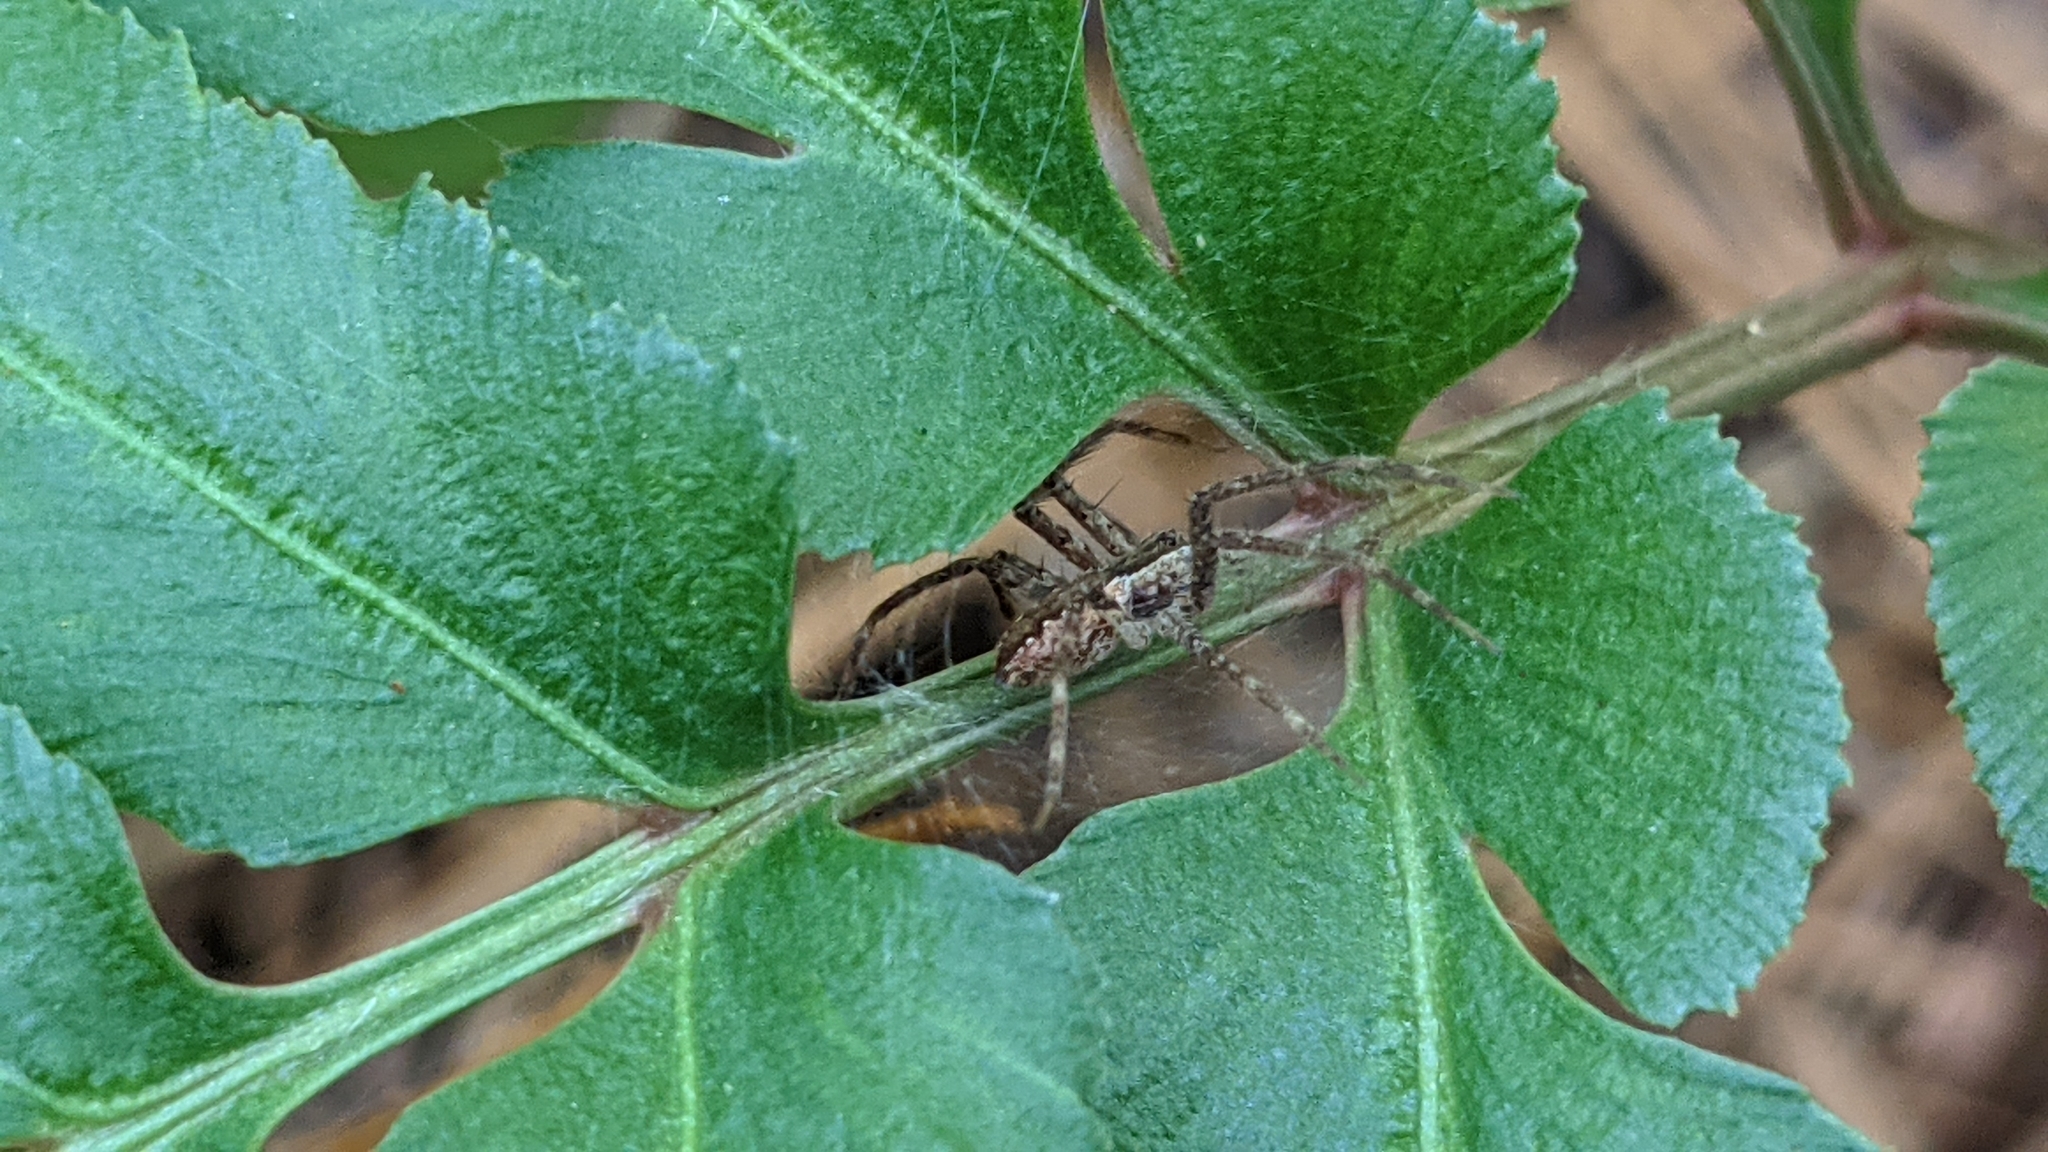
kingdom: Animalia
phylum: Arthropoda
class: Arachnida
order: Araneae
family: Pisauridae
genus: Pisaurina
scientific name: Pisaurina mira
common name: American nursery web spider
